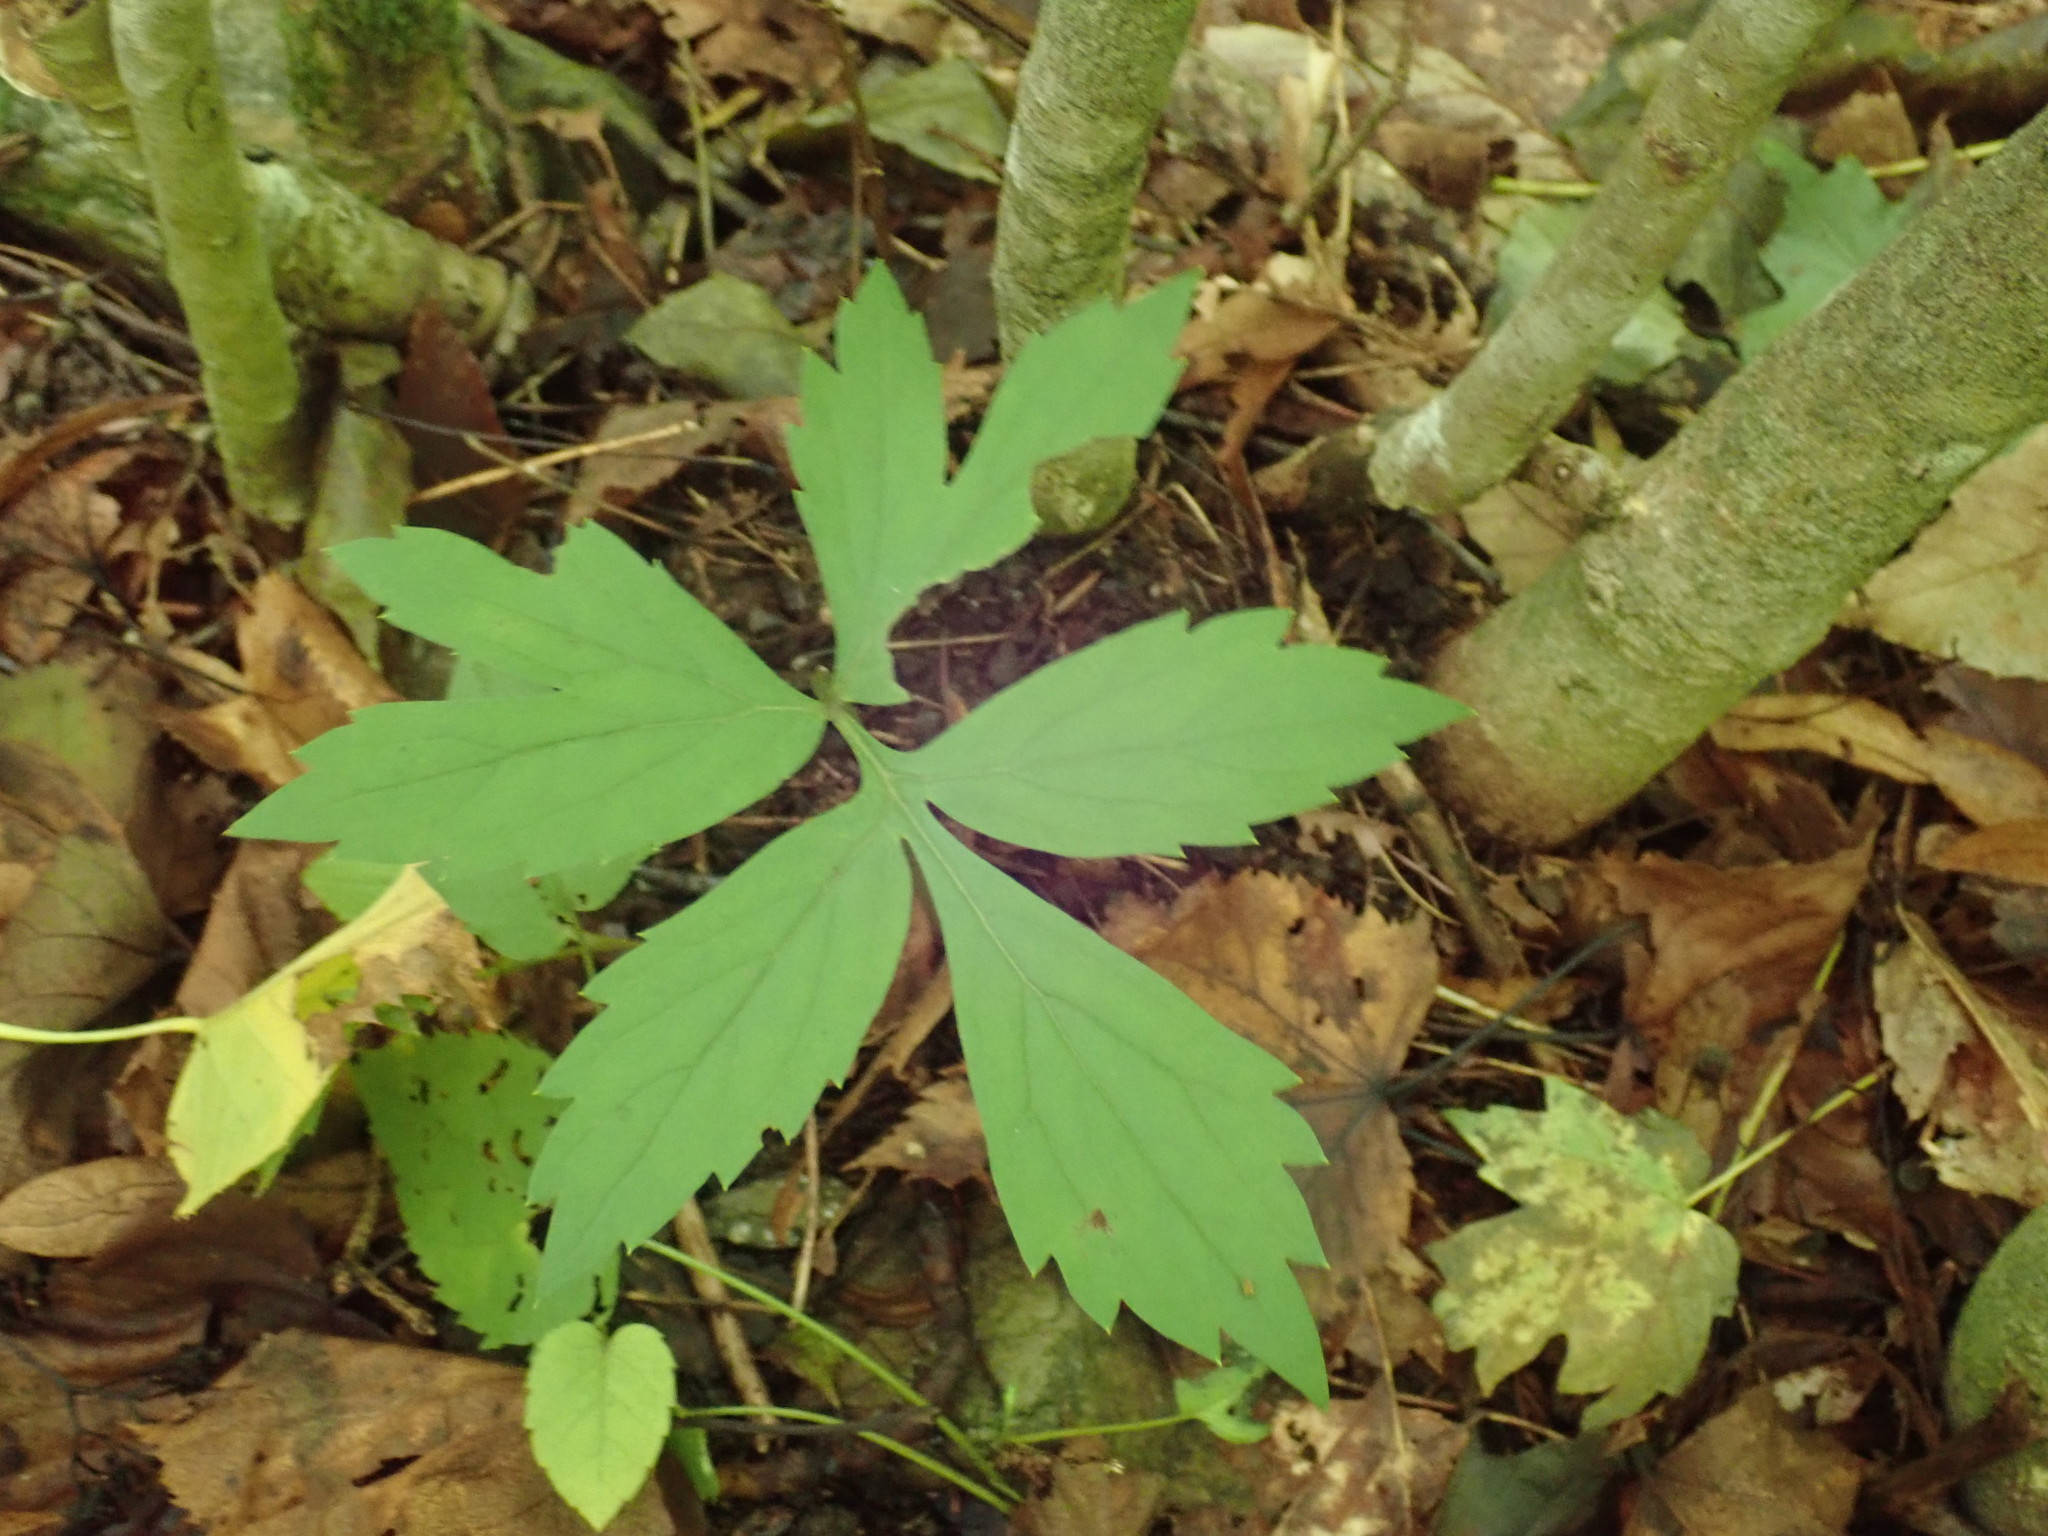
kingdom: Plantae
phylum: Tracheophyta
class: Magnoliopsida
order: Boraginales
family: Hydrophyllaceae
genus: Hydrophyllum
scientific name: Hydrophyllum virginianum
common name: Virginia waterleaf
